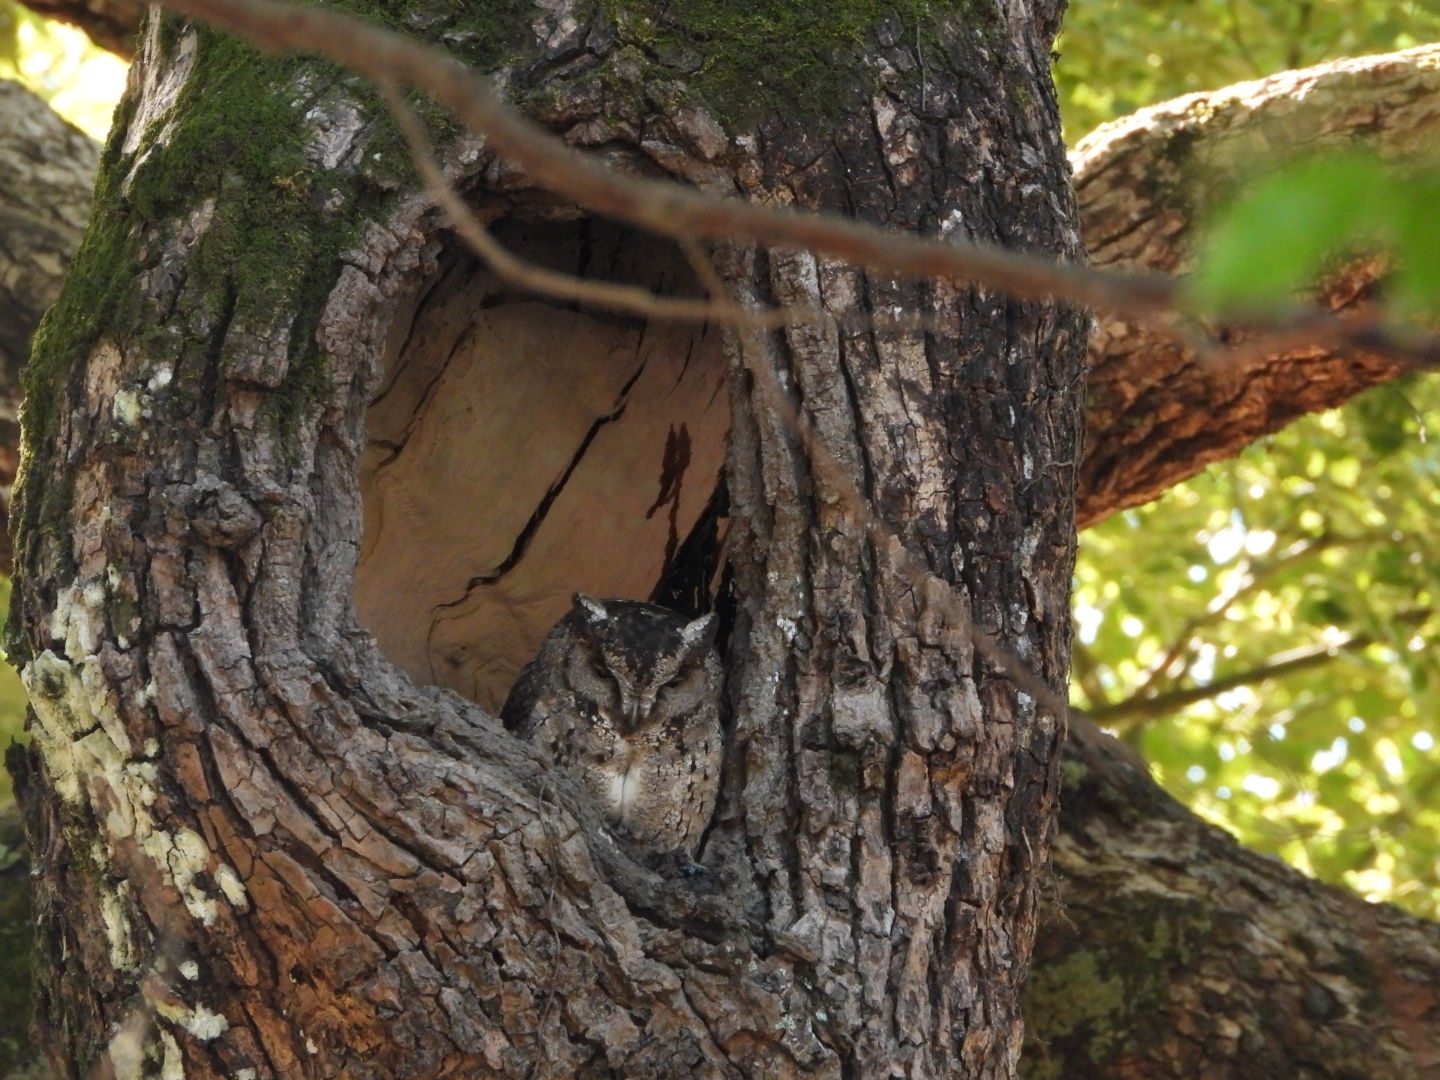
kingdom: Animalia
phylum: Chordata
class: Aves
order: Strigiformes
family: Strigidae
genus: Otus
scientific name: Otus lettia
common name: Collared scops owl
